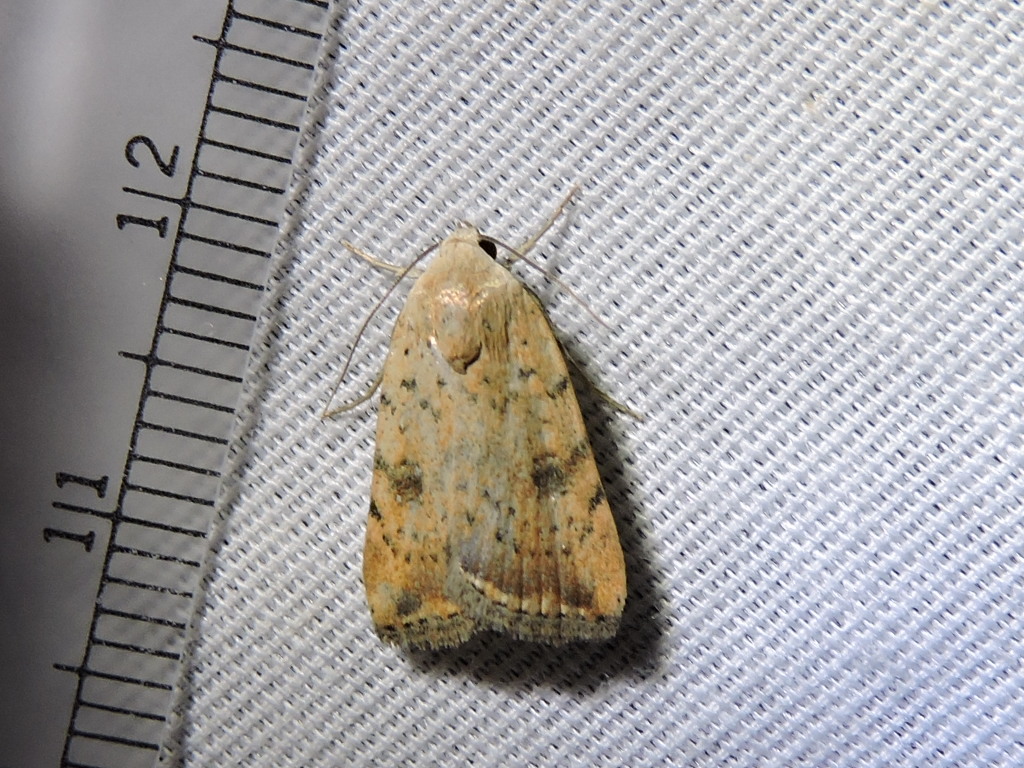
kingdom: Animalia
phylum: Arthropoda
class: Insecta
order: Lepidoptera
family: Noctuidae
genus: Micrathetis
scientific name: Micrathetis triplex
